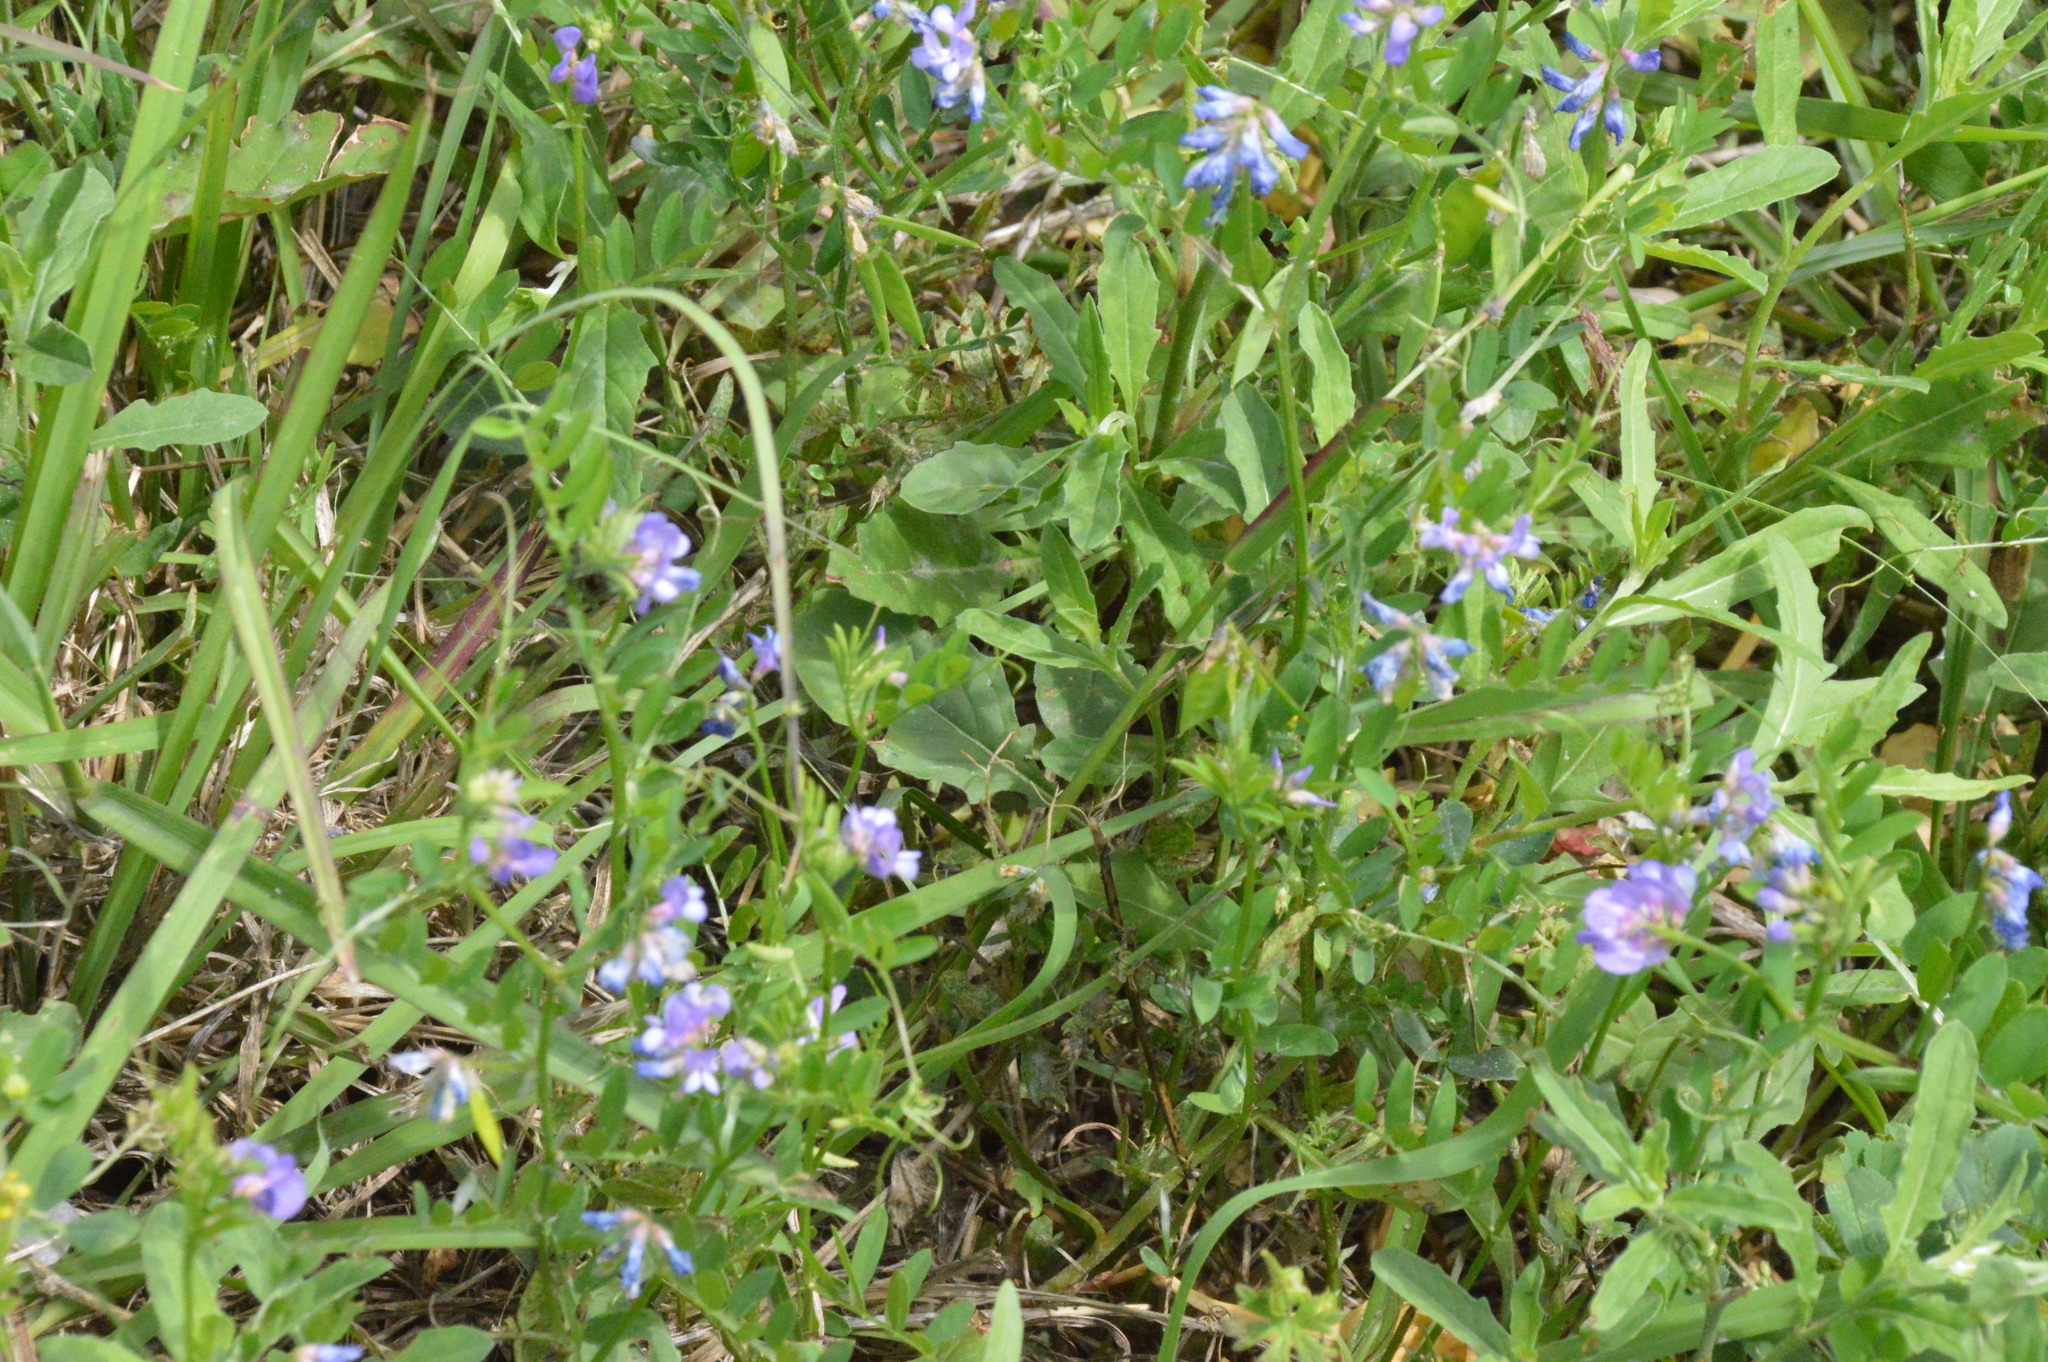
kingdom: Plantae
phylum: Tracheophyta
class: Magnoliopsida
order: Fabales
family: Fabaceae
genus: Vicia
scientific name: Vicia ludoviciana
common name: Louisiana vetch
